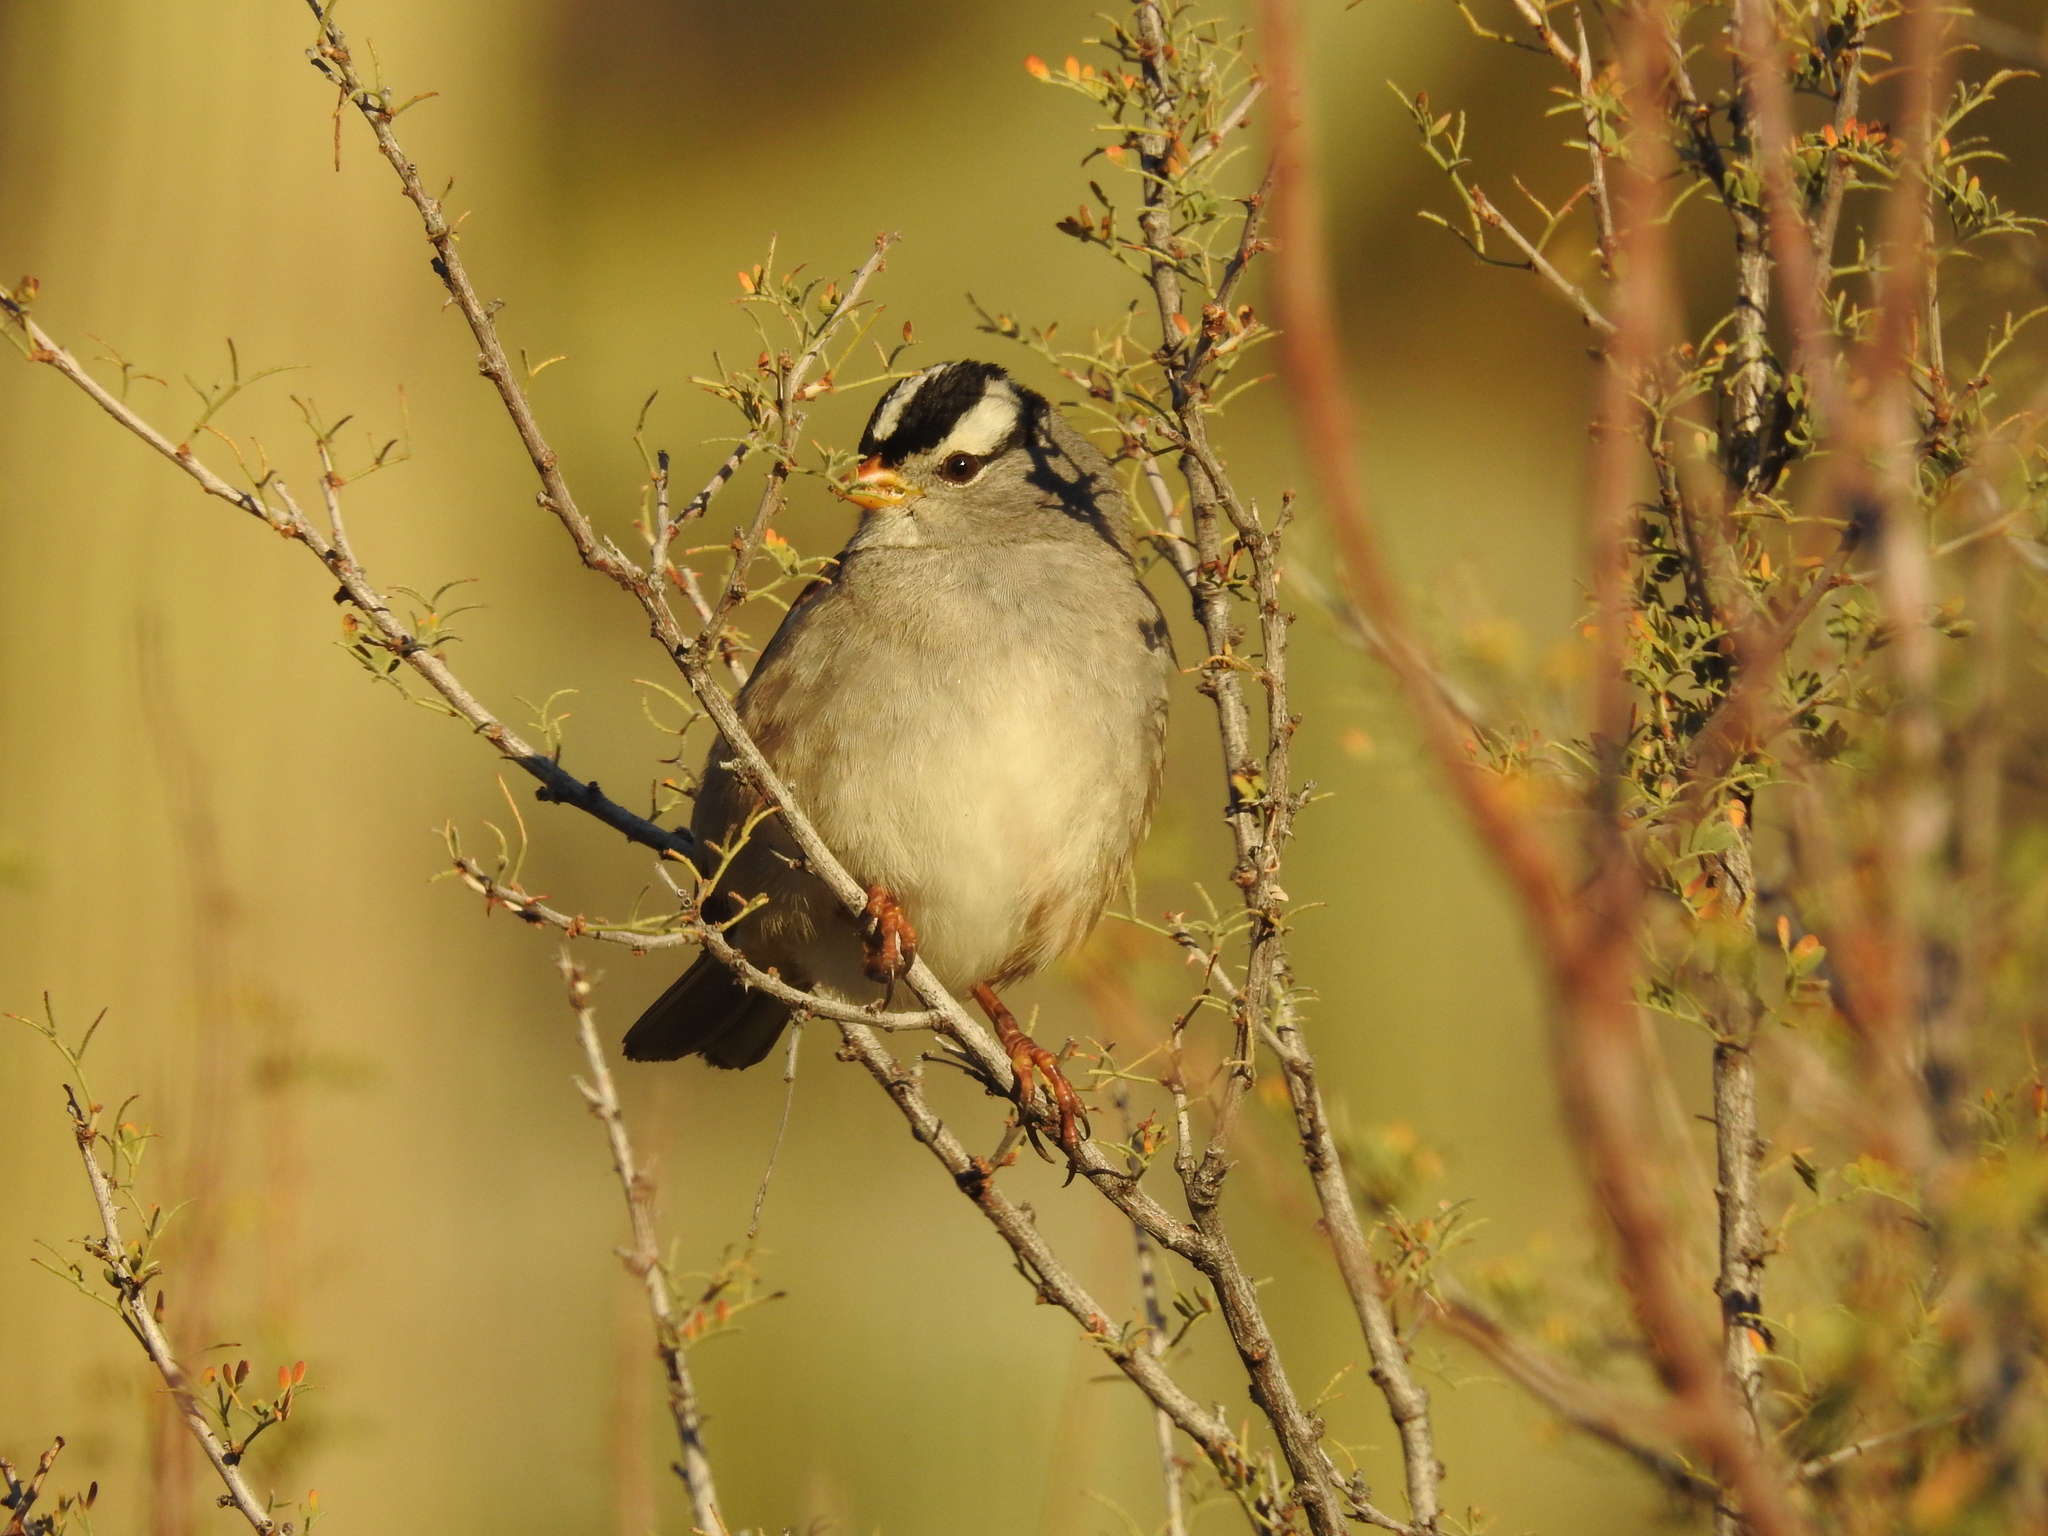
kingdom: Animalia
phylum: Chordata
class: Aves
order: Passeriformes
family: Passerellidae
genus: Zonotrichia
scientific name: Zonotrichia leucophrys
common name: White-crowned sparrow
